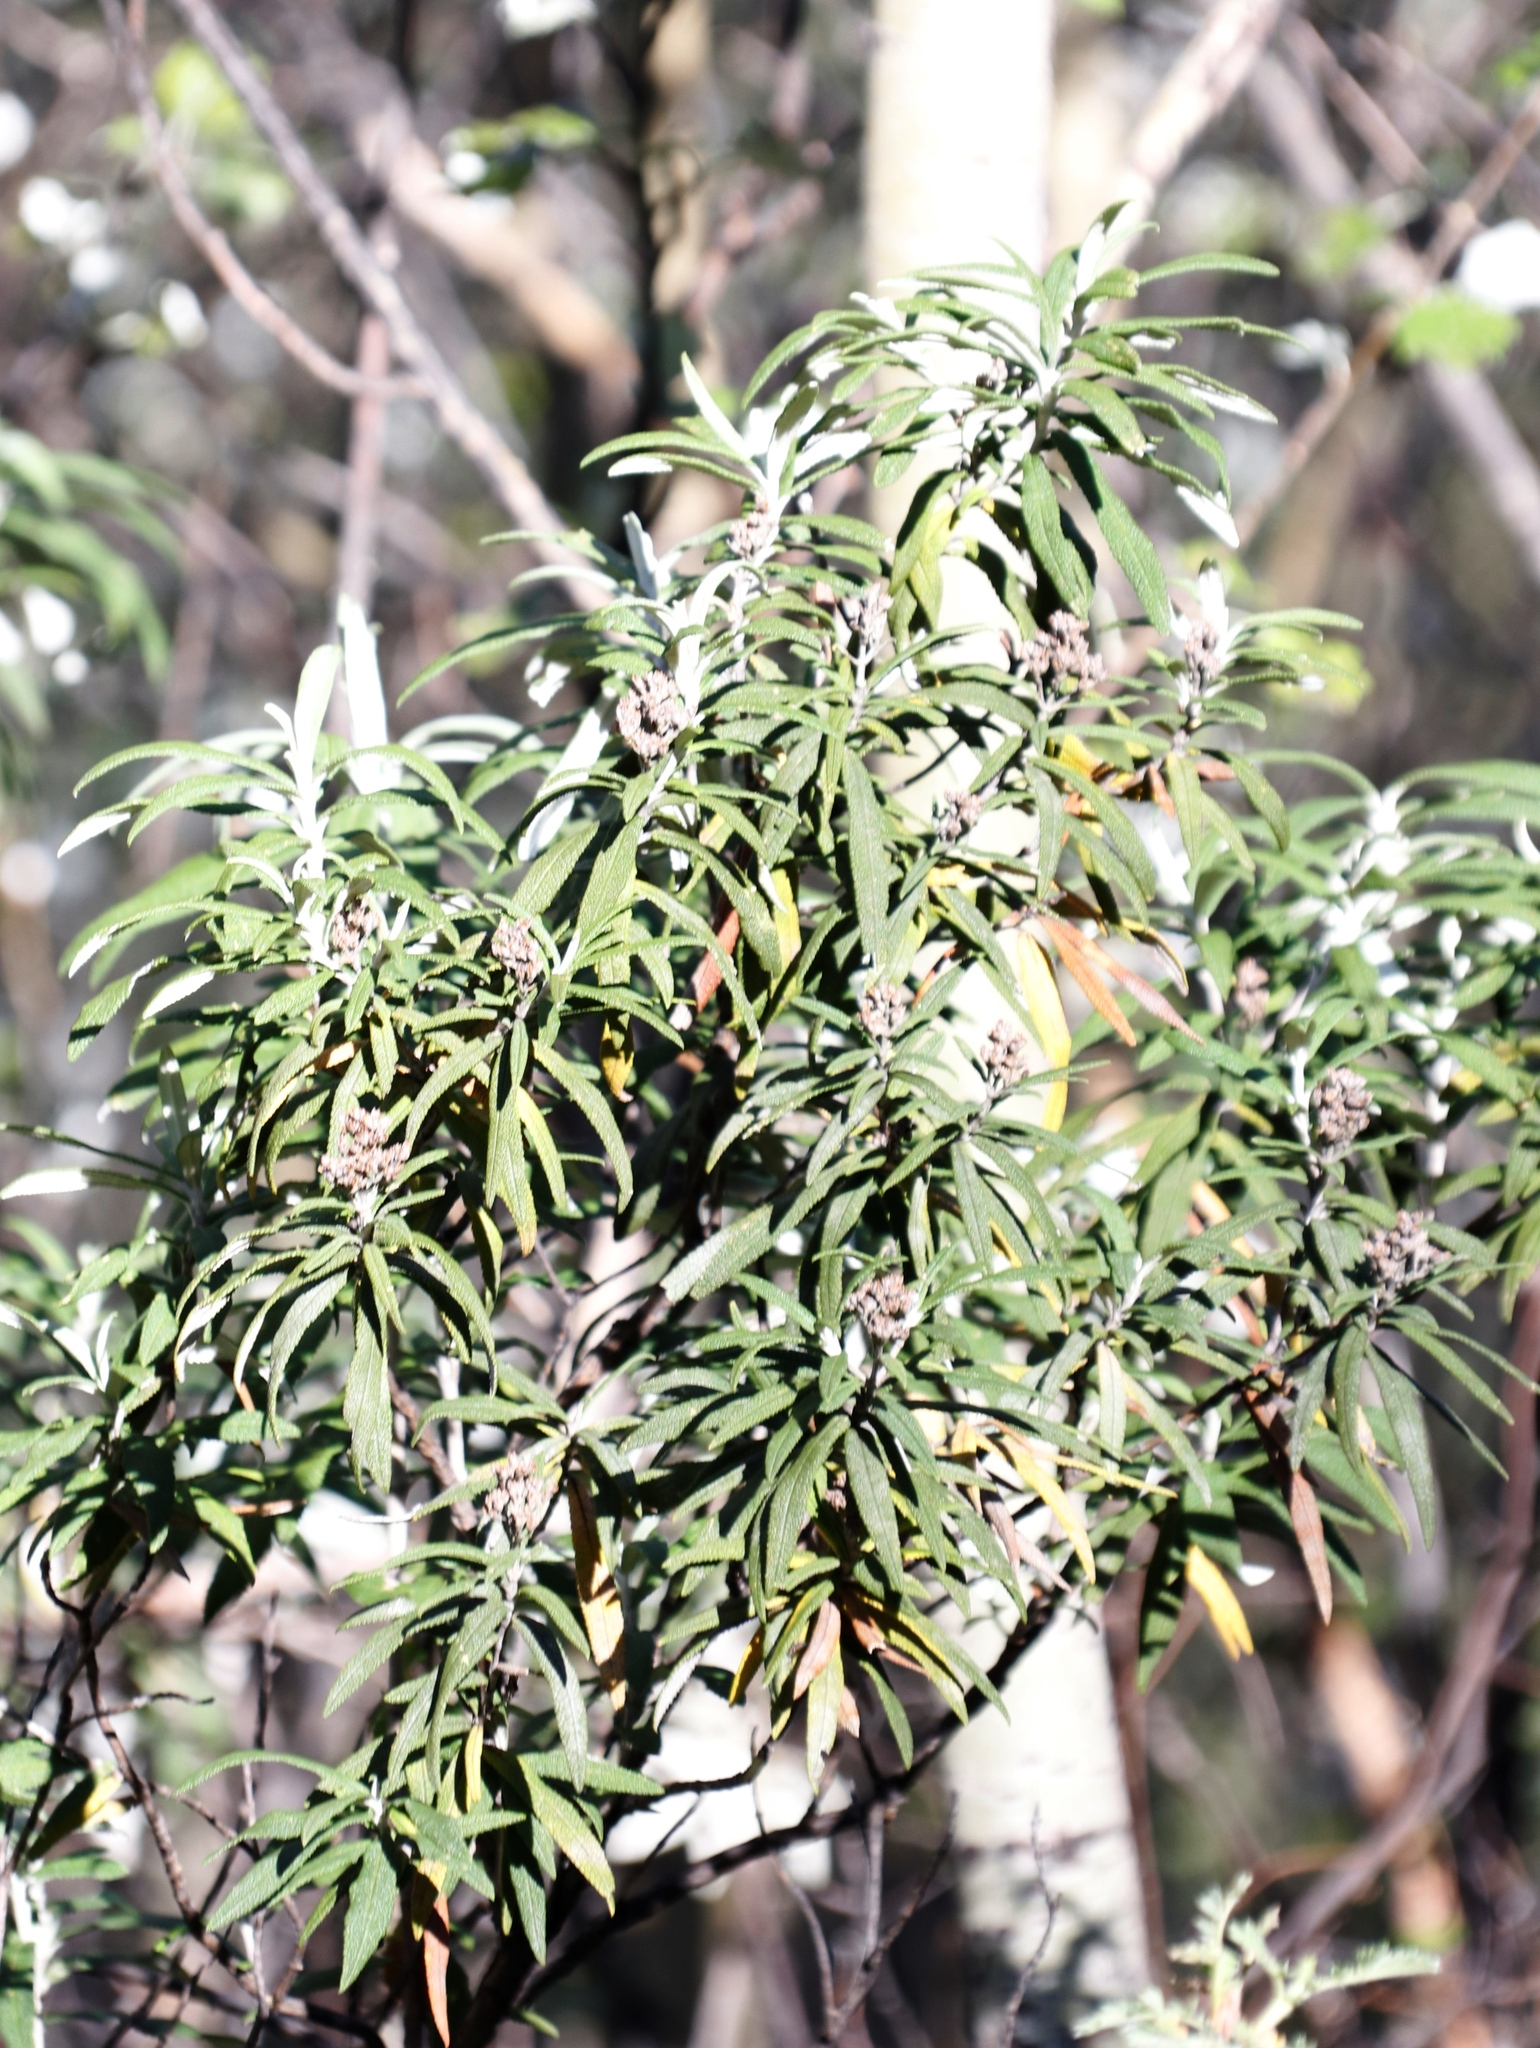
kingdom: Plantae
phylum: Tracheophyta
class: Magnoliopsida
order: Lamiales
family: Scrophulariaceae
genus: Buddleja
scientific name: Buddleja loricata
